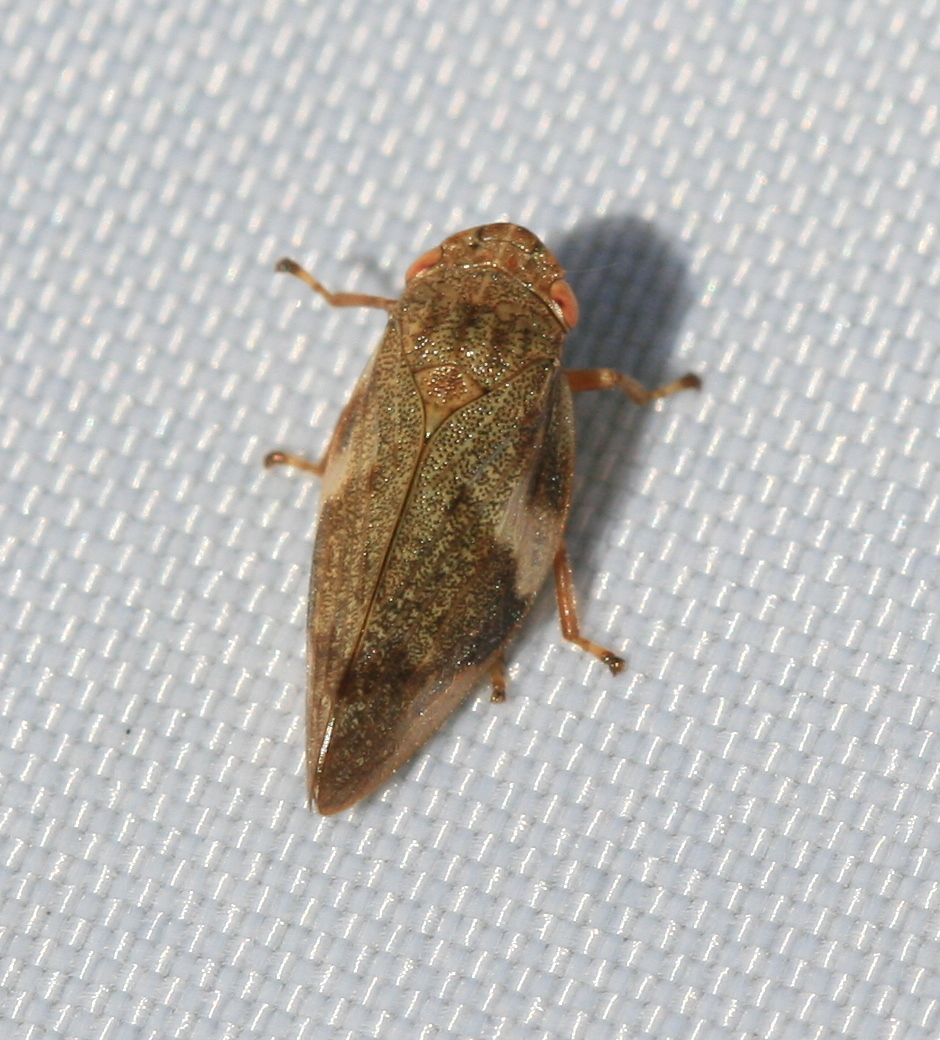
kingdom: Animalia
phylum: Arthropoda
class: Insecta
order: Hemiptera
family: Aphrophoridae
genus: Aphrophora
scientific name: Aphrophora alni
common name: European alder spittlebug
